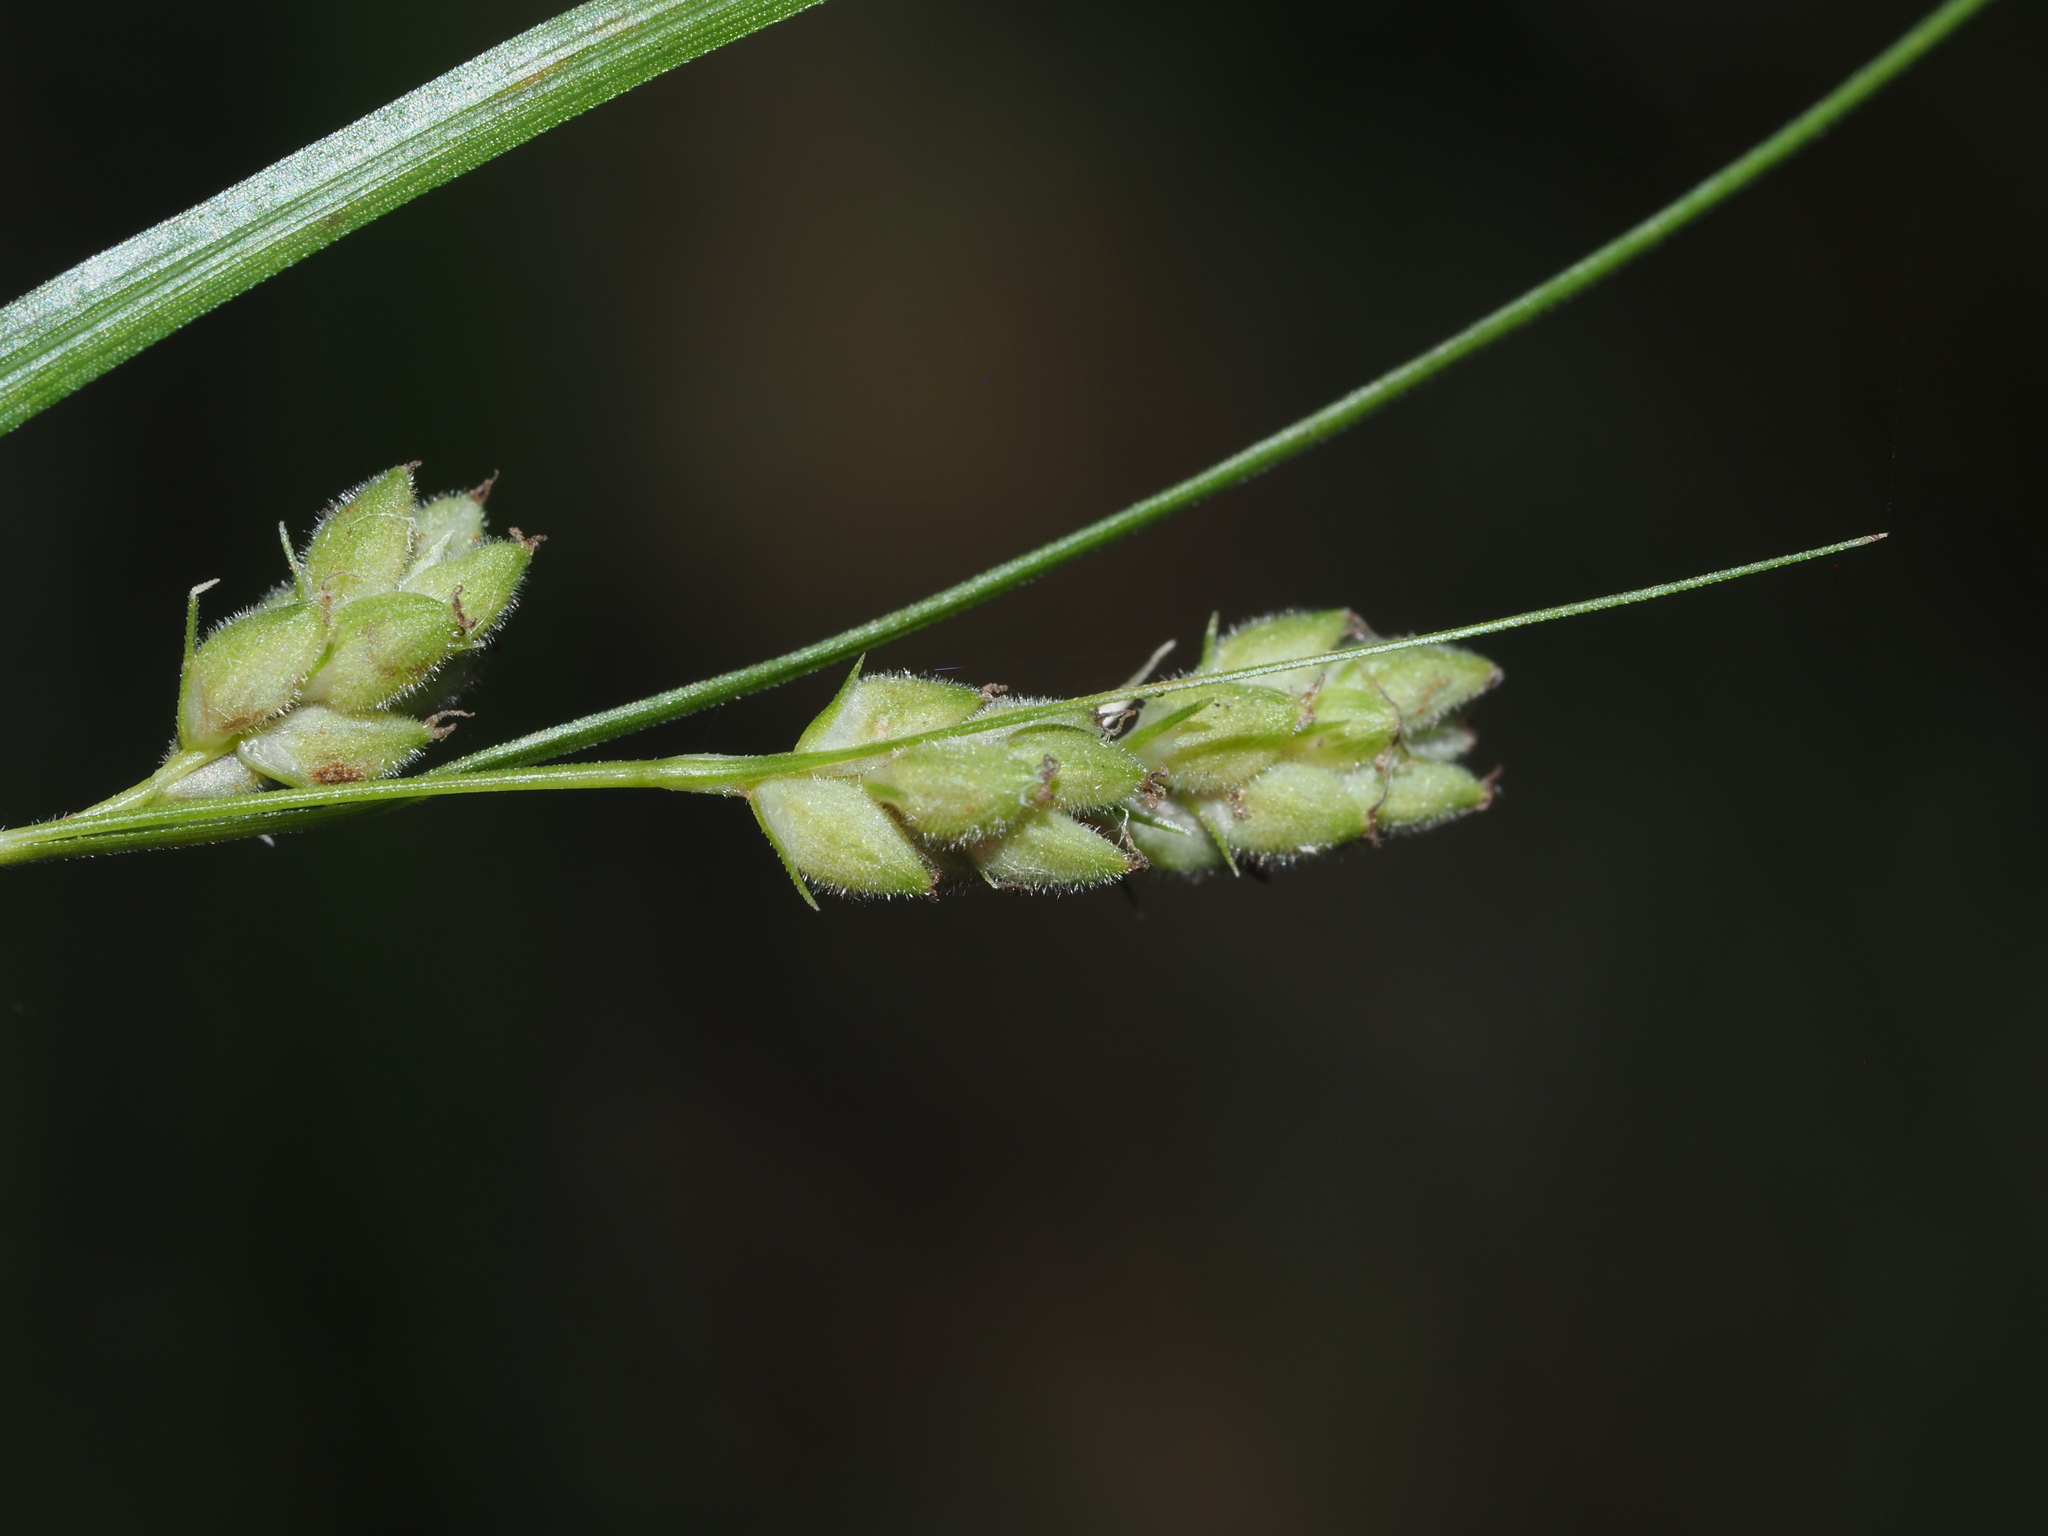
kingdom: Plantae
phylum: Tracheophyta
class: Liliopsida
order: Poales
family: Cyperaceae
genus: Carex
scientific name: Carex swanii
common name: Downy green sedge
